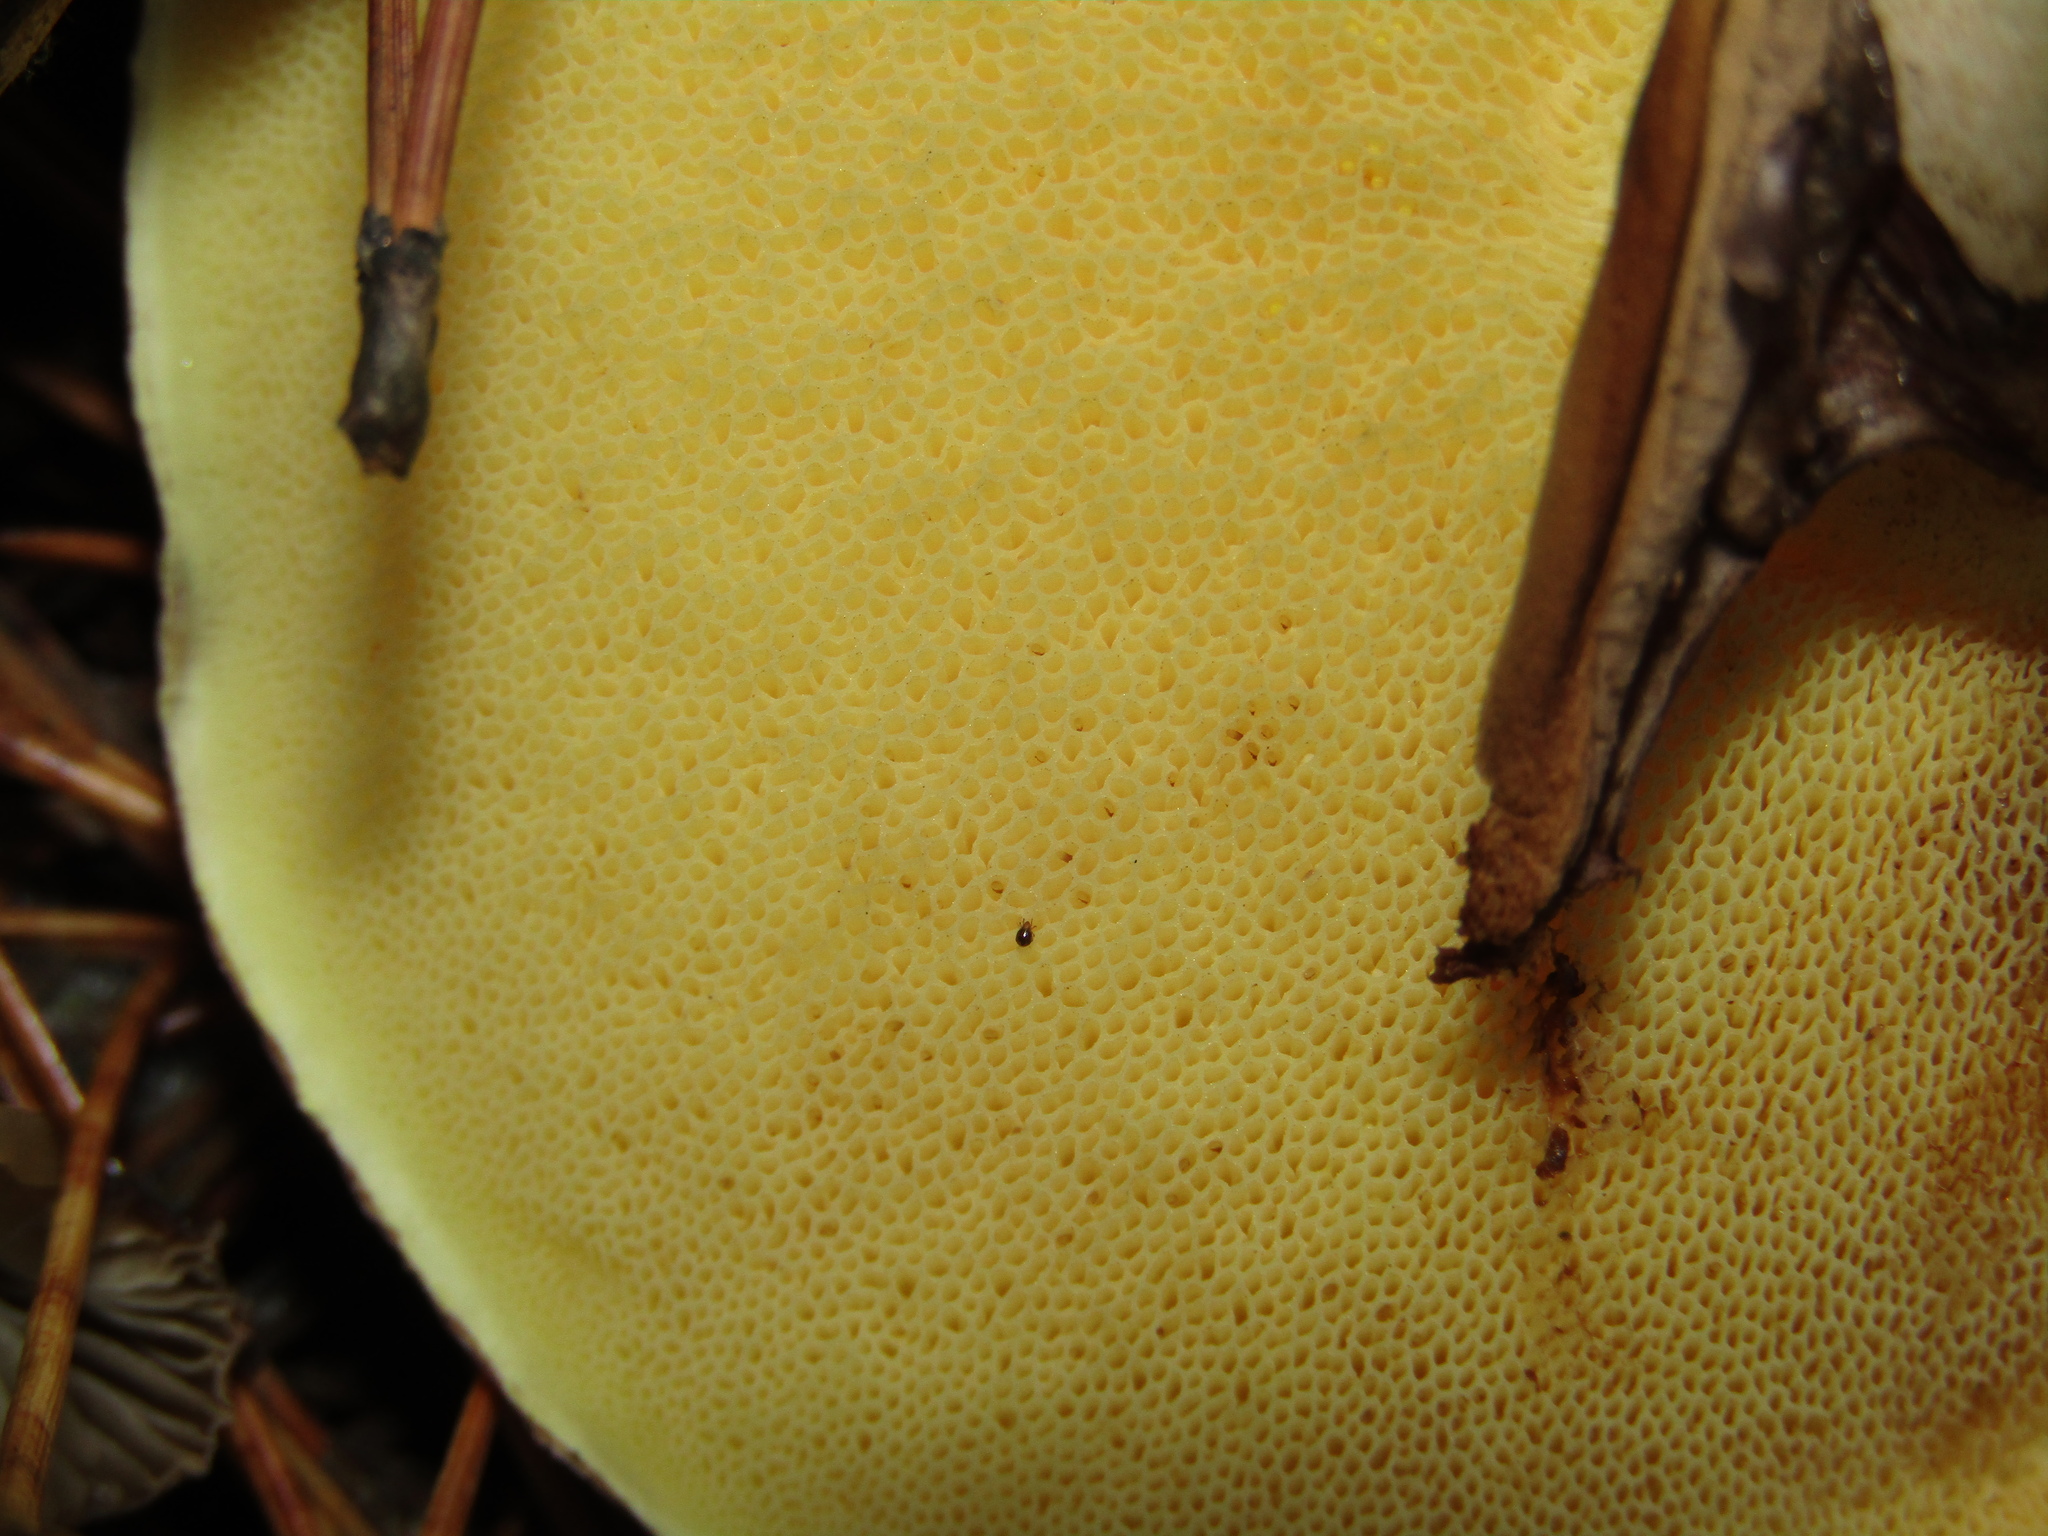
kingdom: Fungi
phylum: Basidiomycota
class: Agaricomycetes
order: Boletales
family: Suillaceae
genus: Suillus
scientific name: Suillus luteus
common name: Slippery jack
